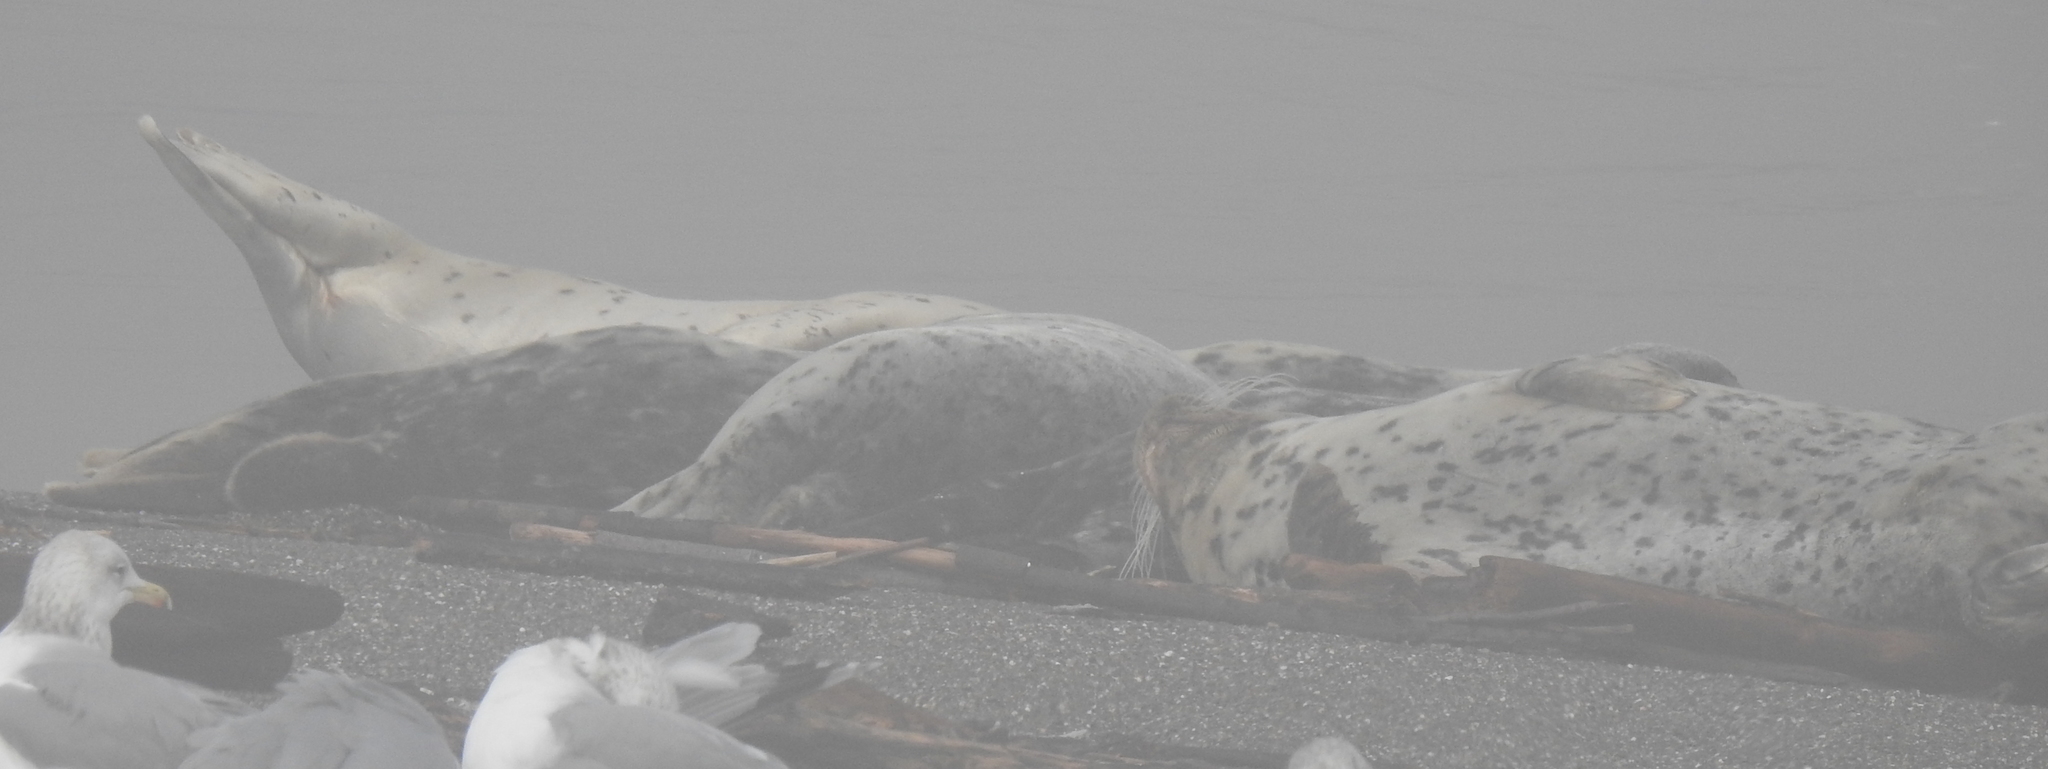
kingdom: Animalia
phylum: Chordata
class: Mammalia
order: Carnivora
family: Phocidae
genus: Phoca
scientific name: Phoca vitulina
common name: Harbor seal
